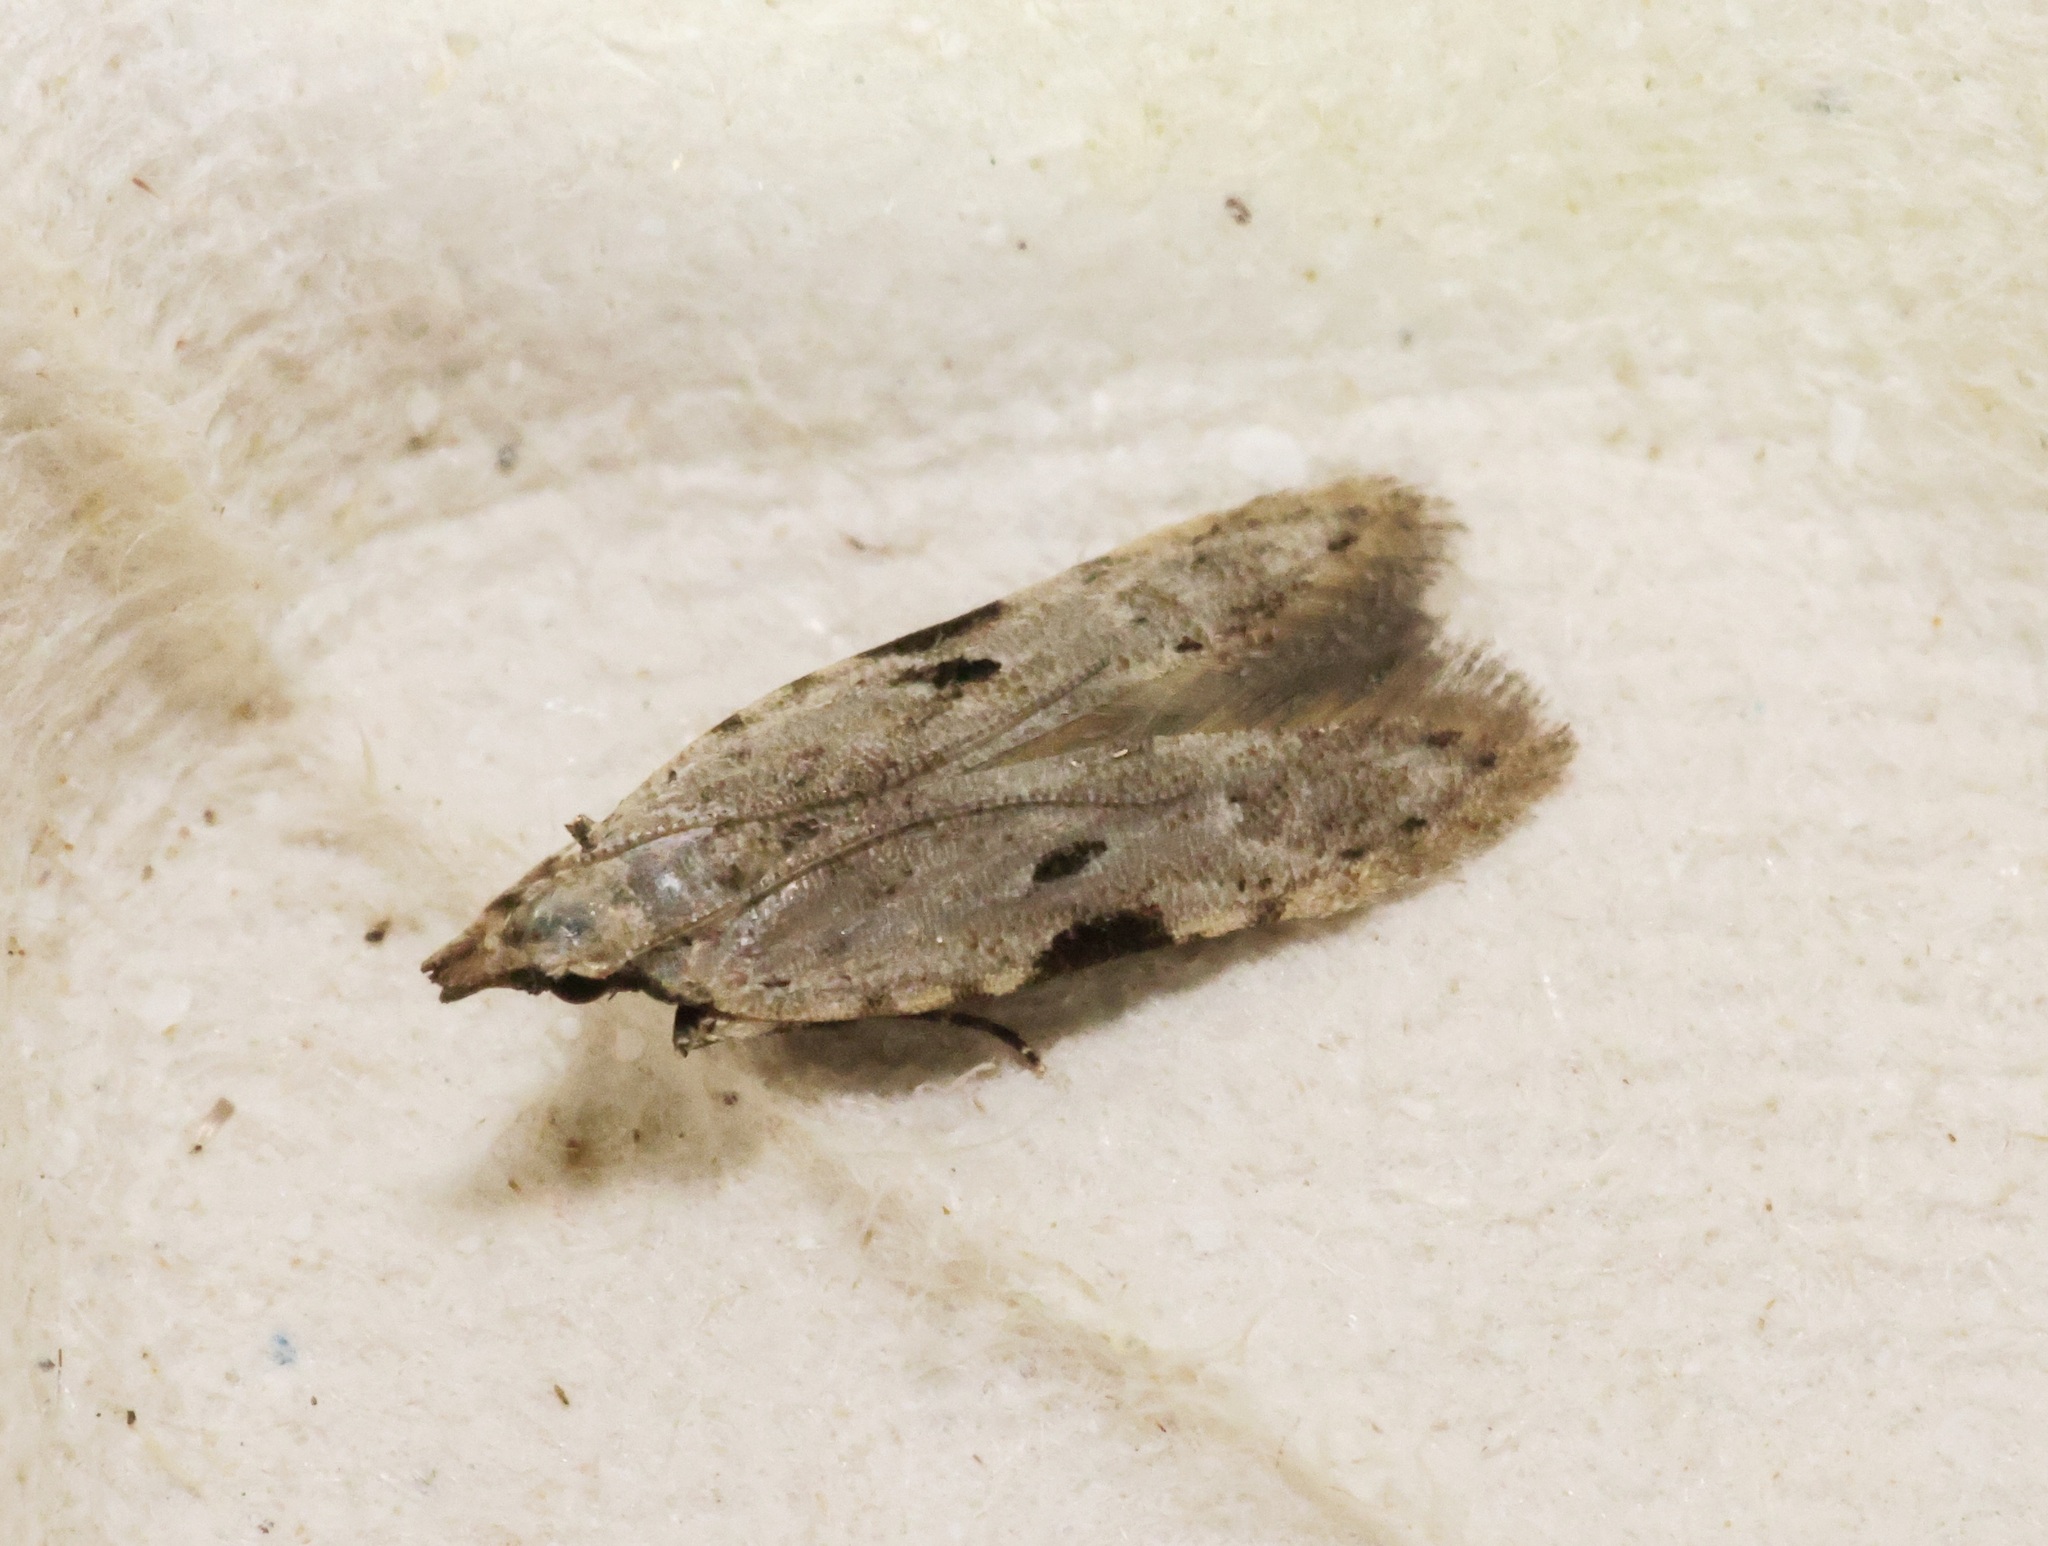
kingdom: Animalia
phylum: Arthropoda
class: Insecta
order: Lepidoptera
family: Gelechiidae
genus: Anarsia
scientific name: Anarsia patulella
